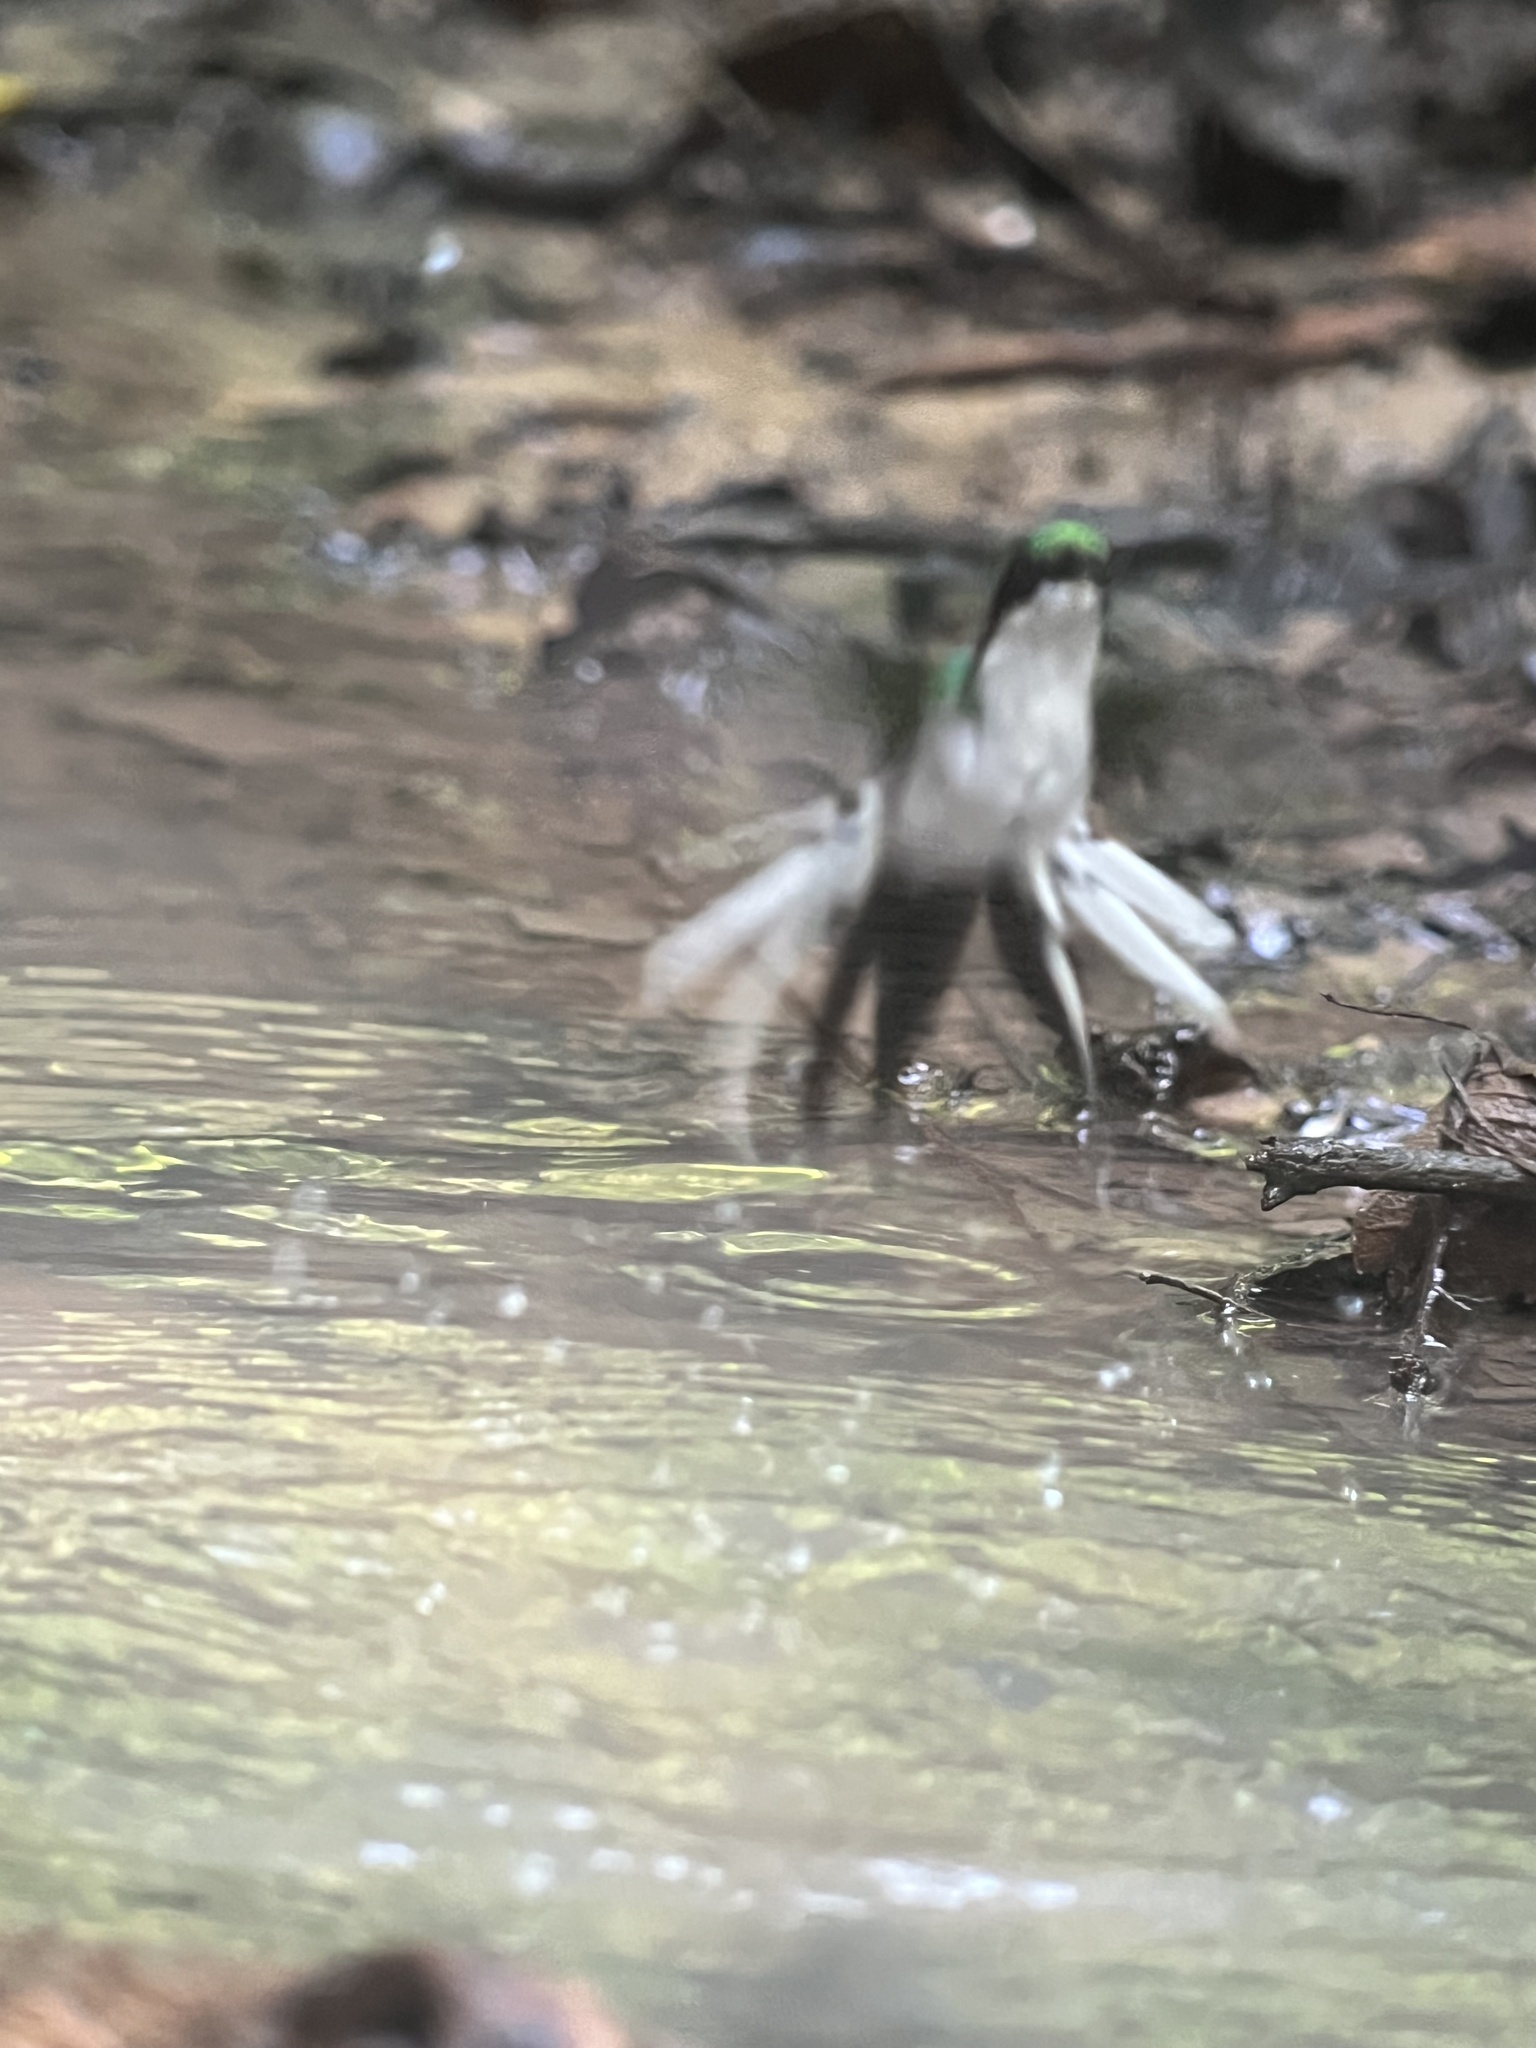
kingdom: Animalia
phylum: Chordata
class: Aves
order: Apodiformes
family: Trochilidae
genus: Heliothryx
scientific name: Heliothryx barroti
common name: Purple-crowned fairy
